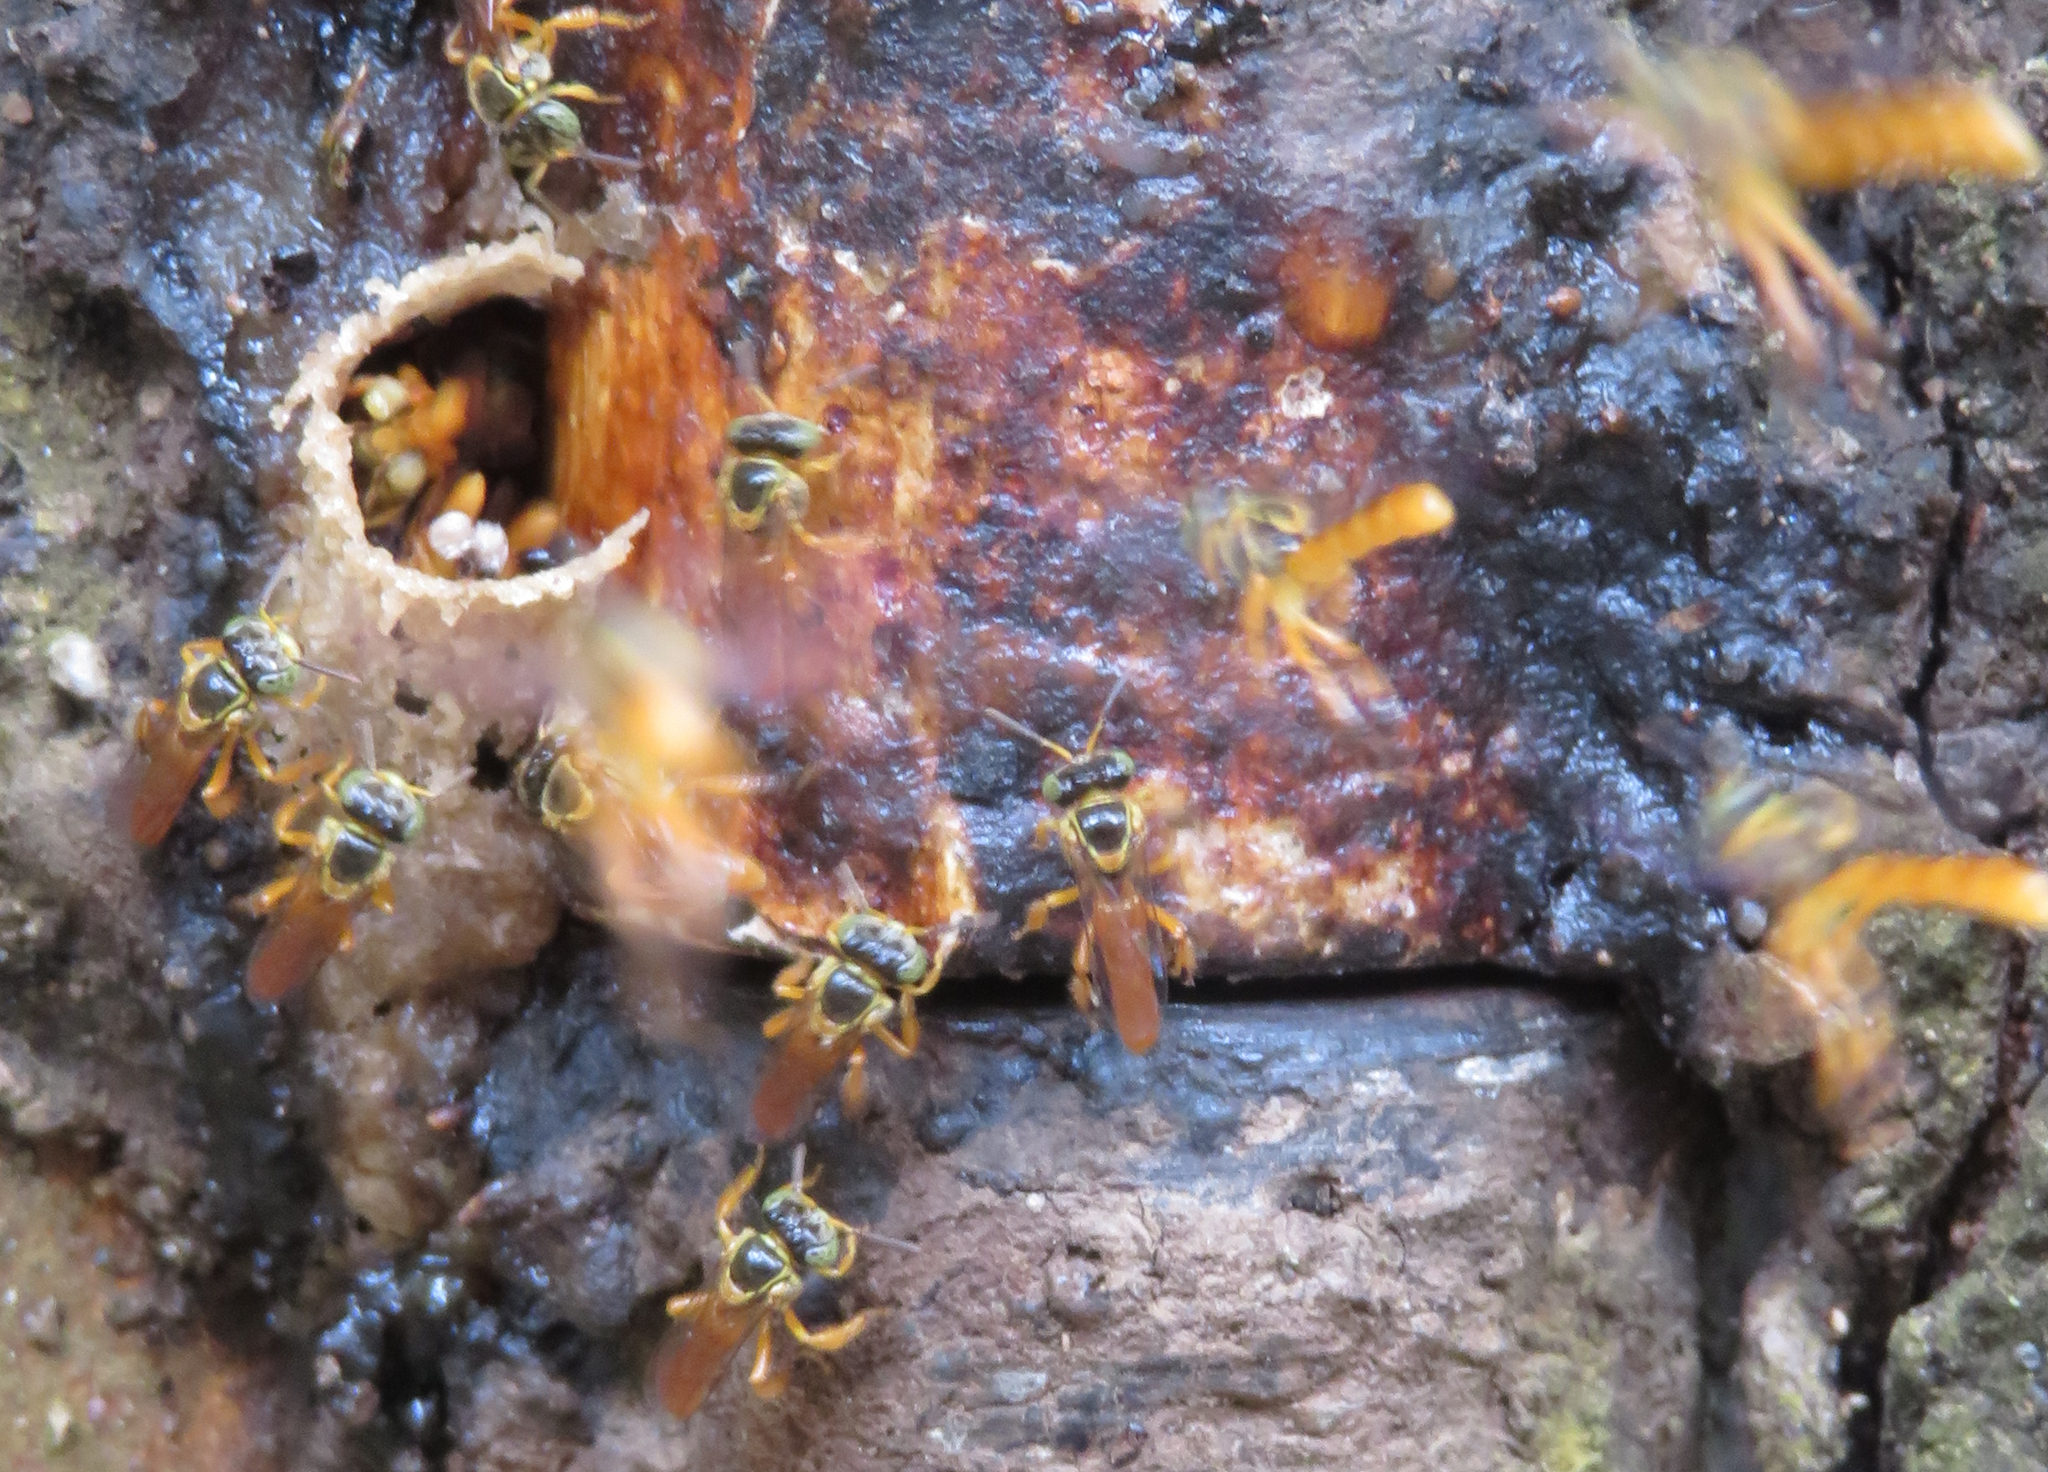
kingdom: Animalia
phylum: Arthropoda
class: Insecta
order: Hymenoptera
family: Apidae
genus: Tetragonisca
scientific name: Tetragonisca angustula
